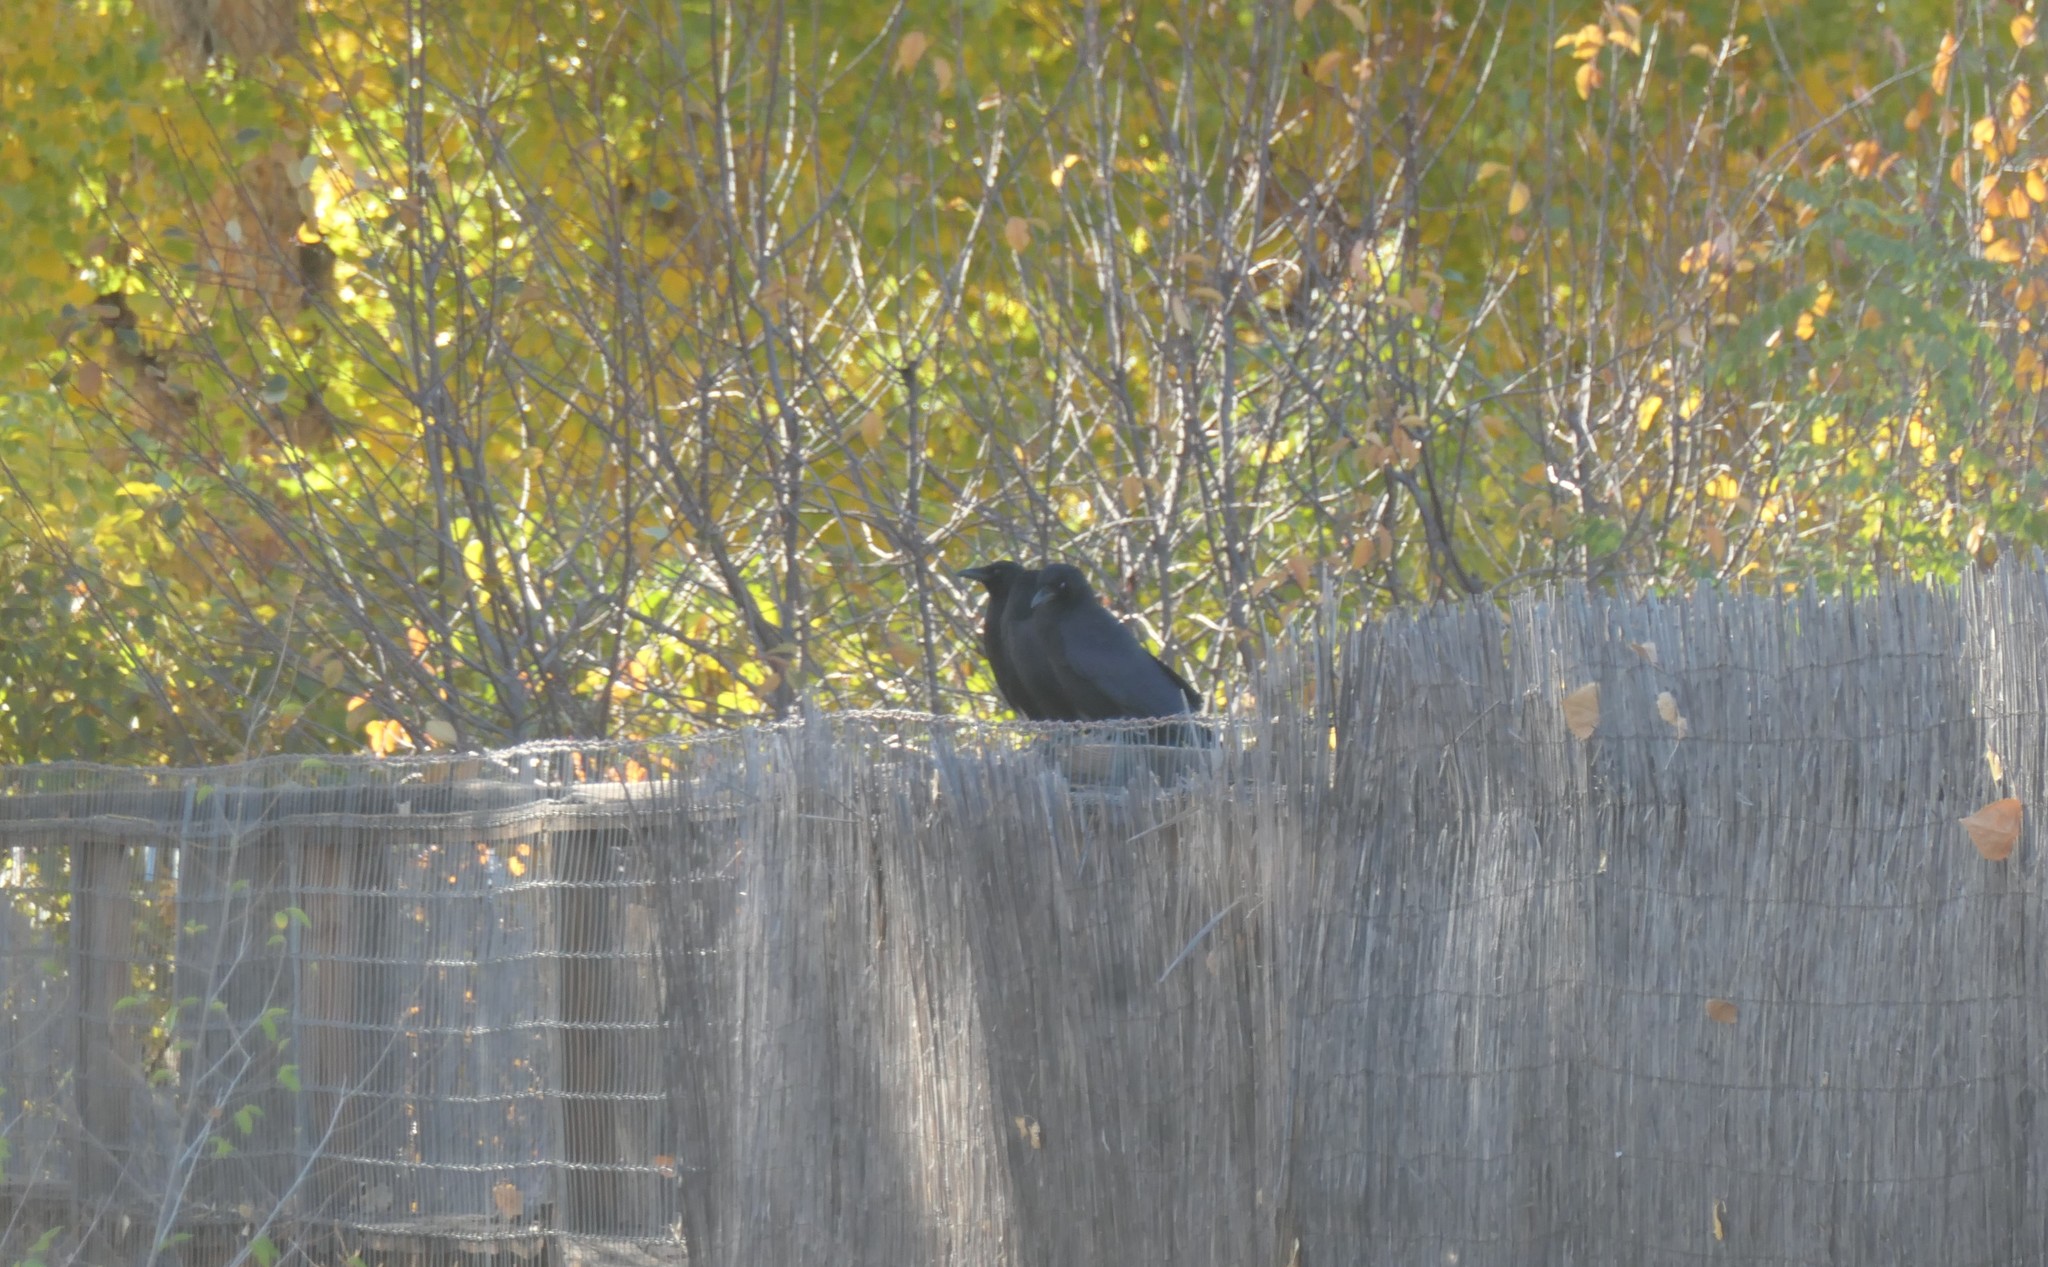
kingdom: Animalia
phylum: Chordata
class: Aves
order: Passeriformes
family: Corvidae
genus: Corvus
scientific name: Corvus brachyrhynchos
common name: American crow
